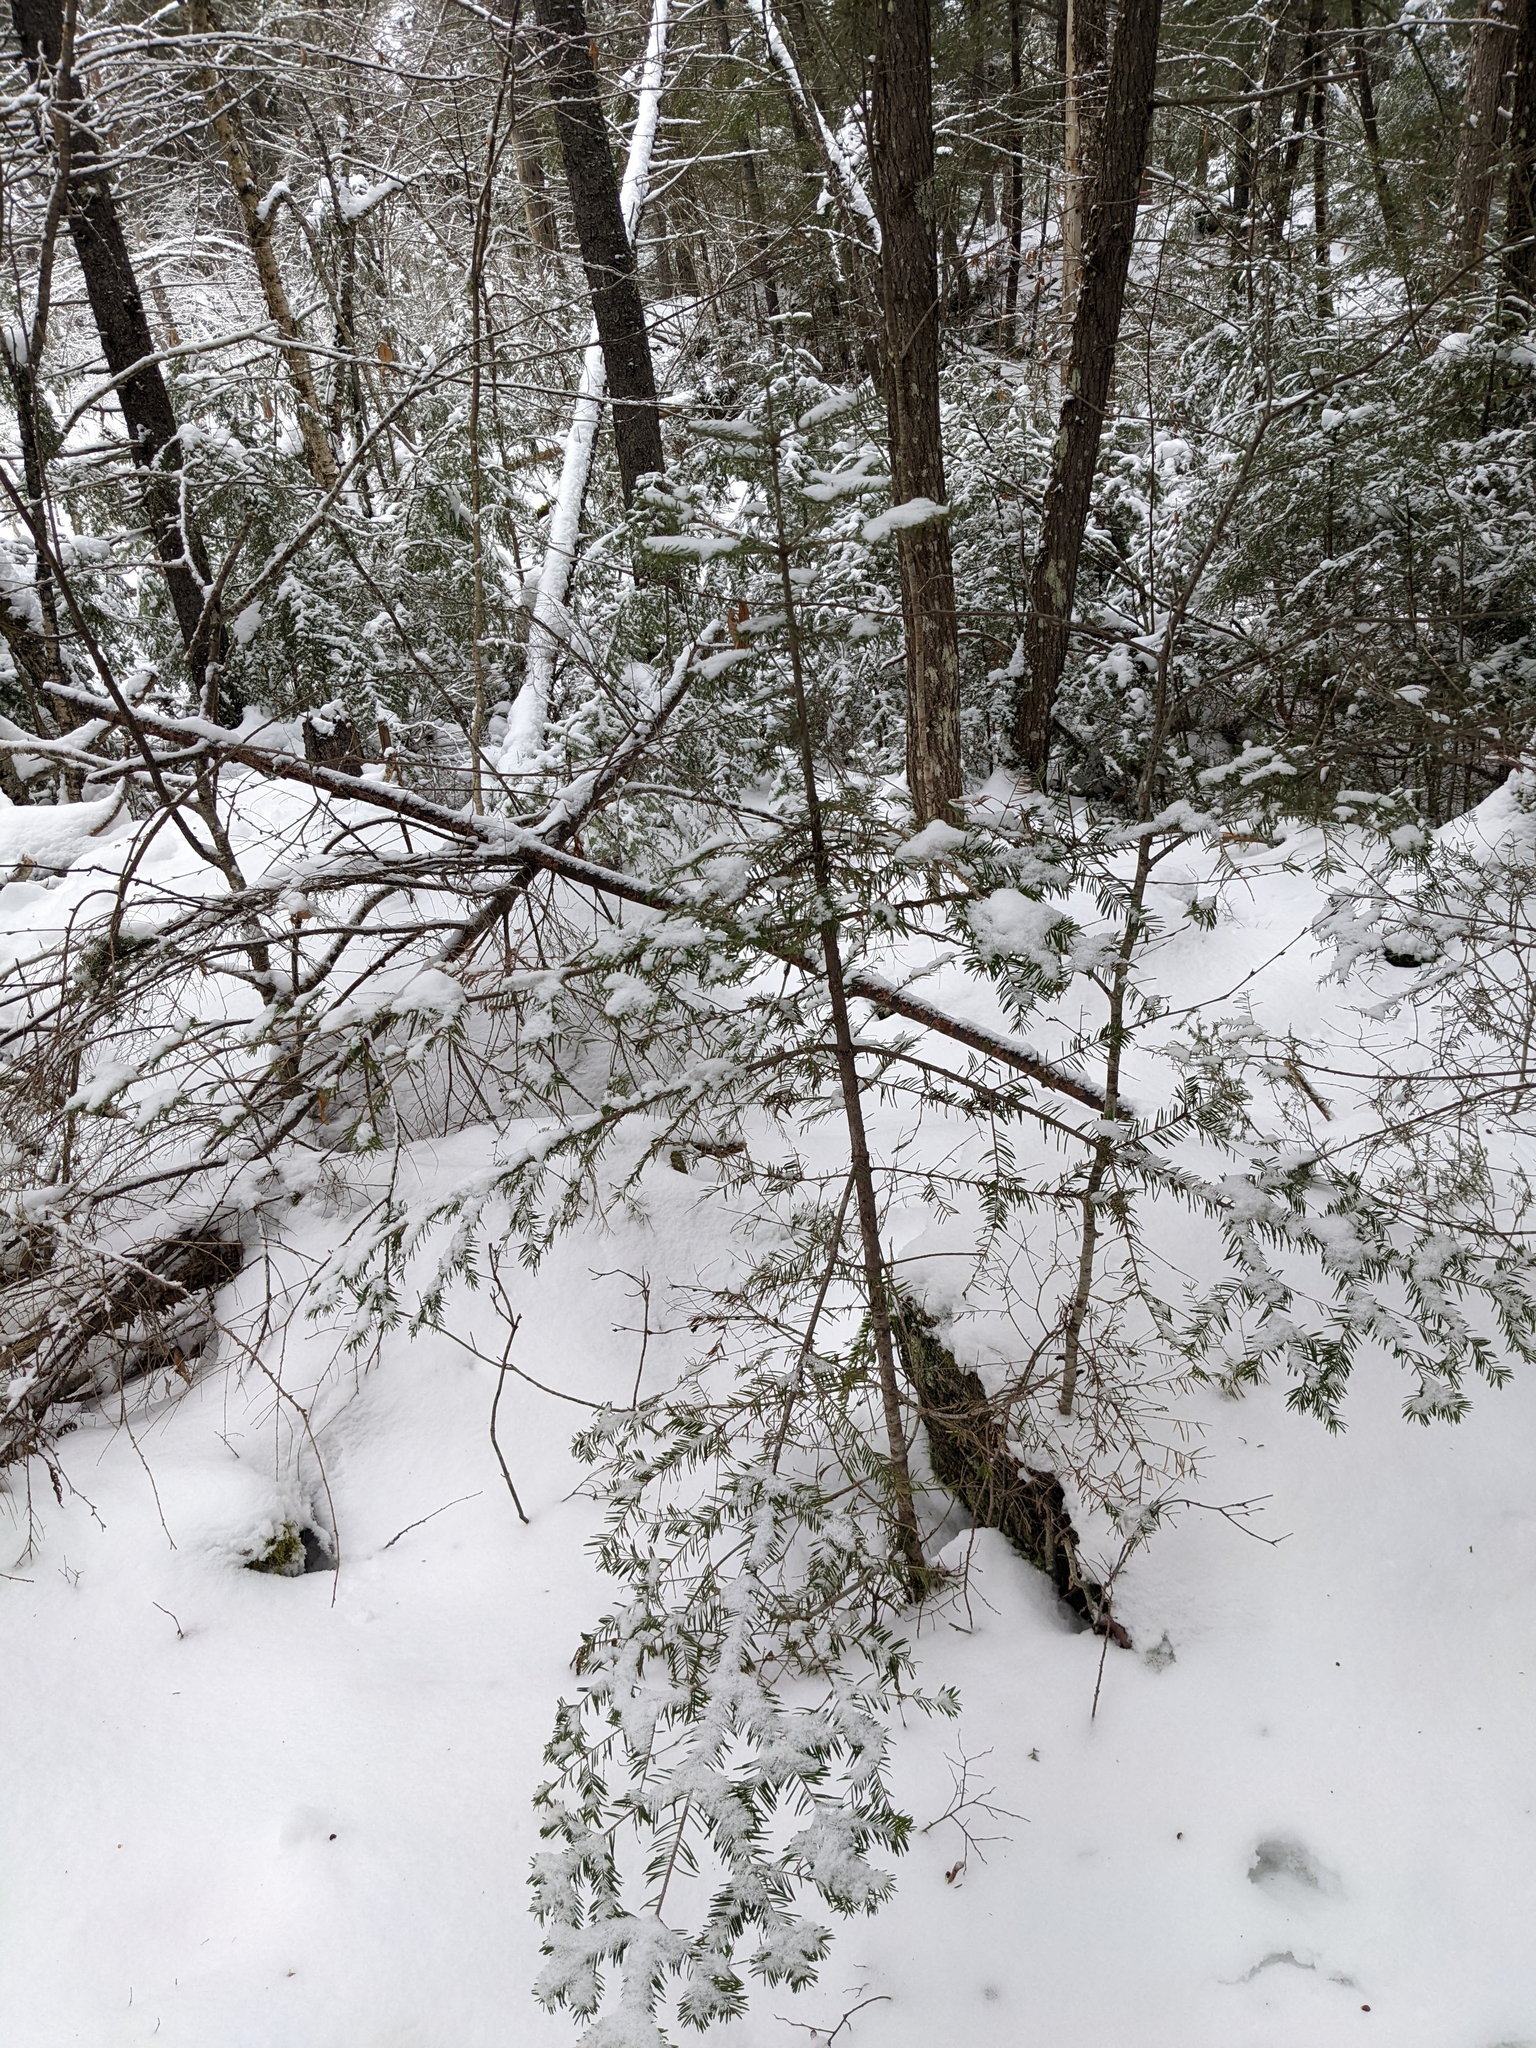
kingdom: Plantae
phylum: Tracheophyta
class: Pinopsida
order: Pinales
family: Pinaceae
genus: Abies
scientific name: Abies balsamea
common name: Balsam fir
